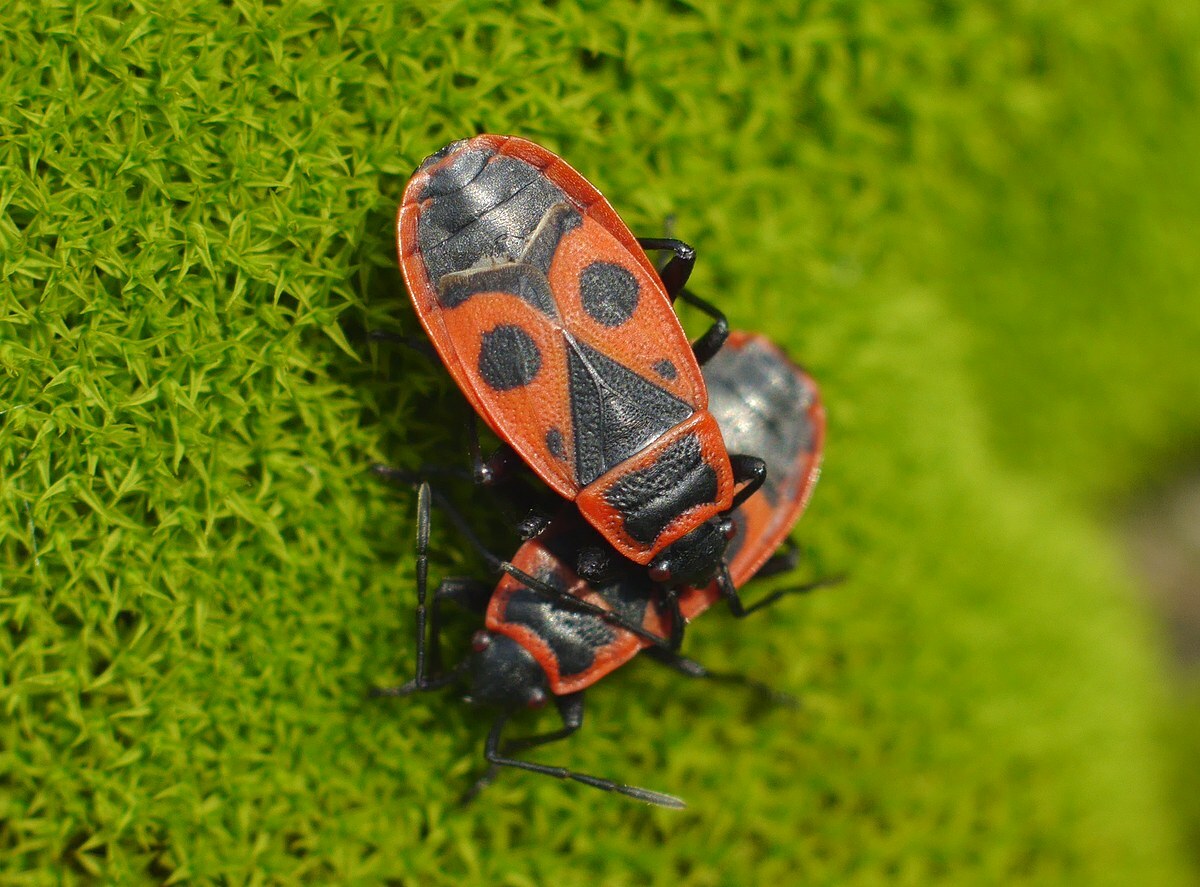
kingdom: Animalia
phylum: Arthropoda
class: Insecta
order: Hemiptera
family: Pyrrhocoridae
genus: Pyrrhocoris
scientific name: Pyrrhocoris apterus
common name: Firebug
